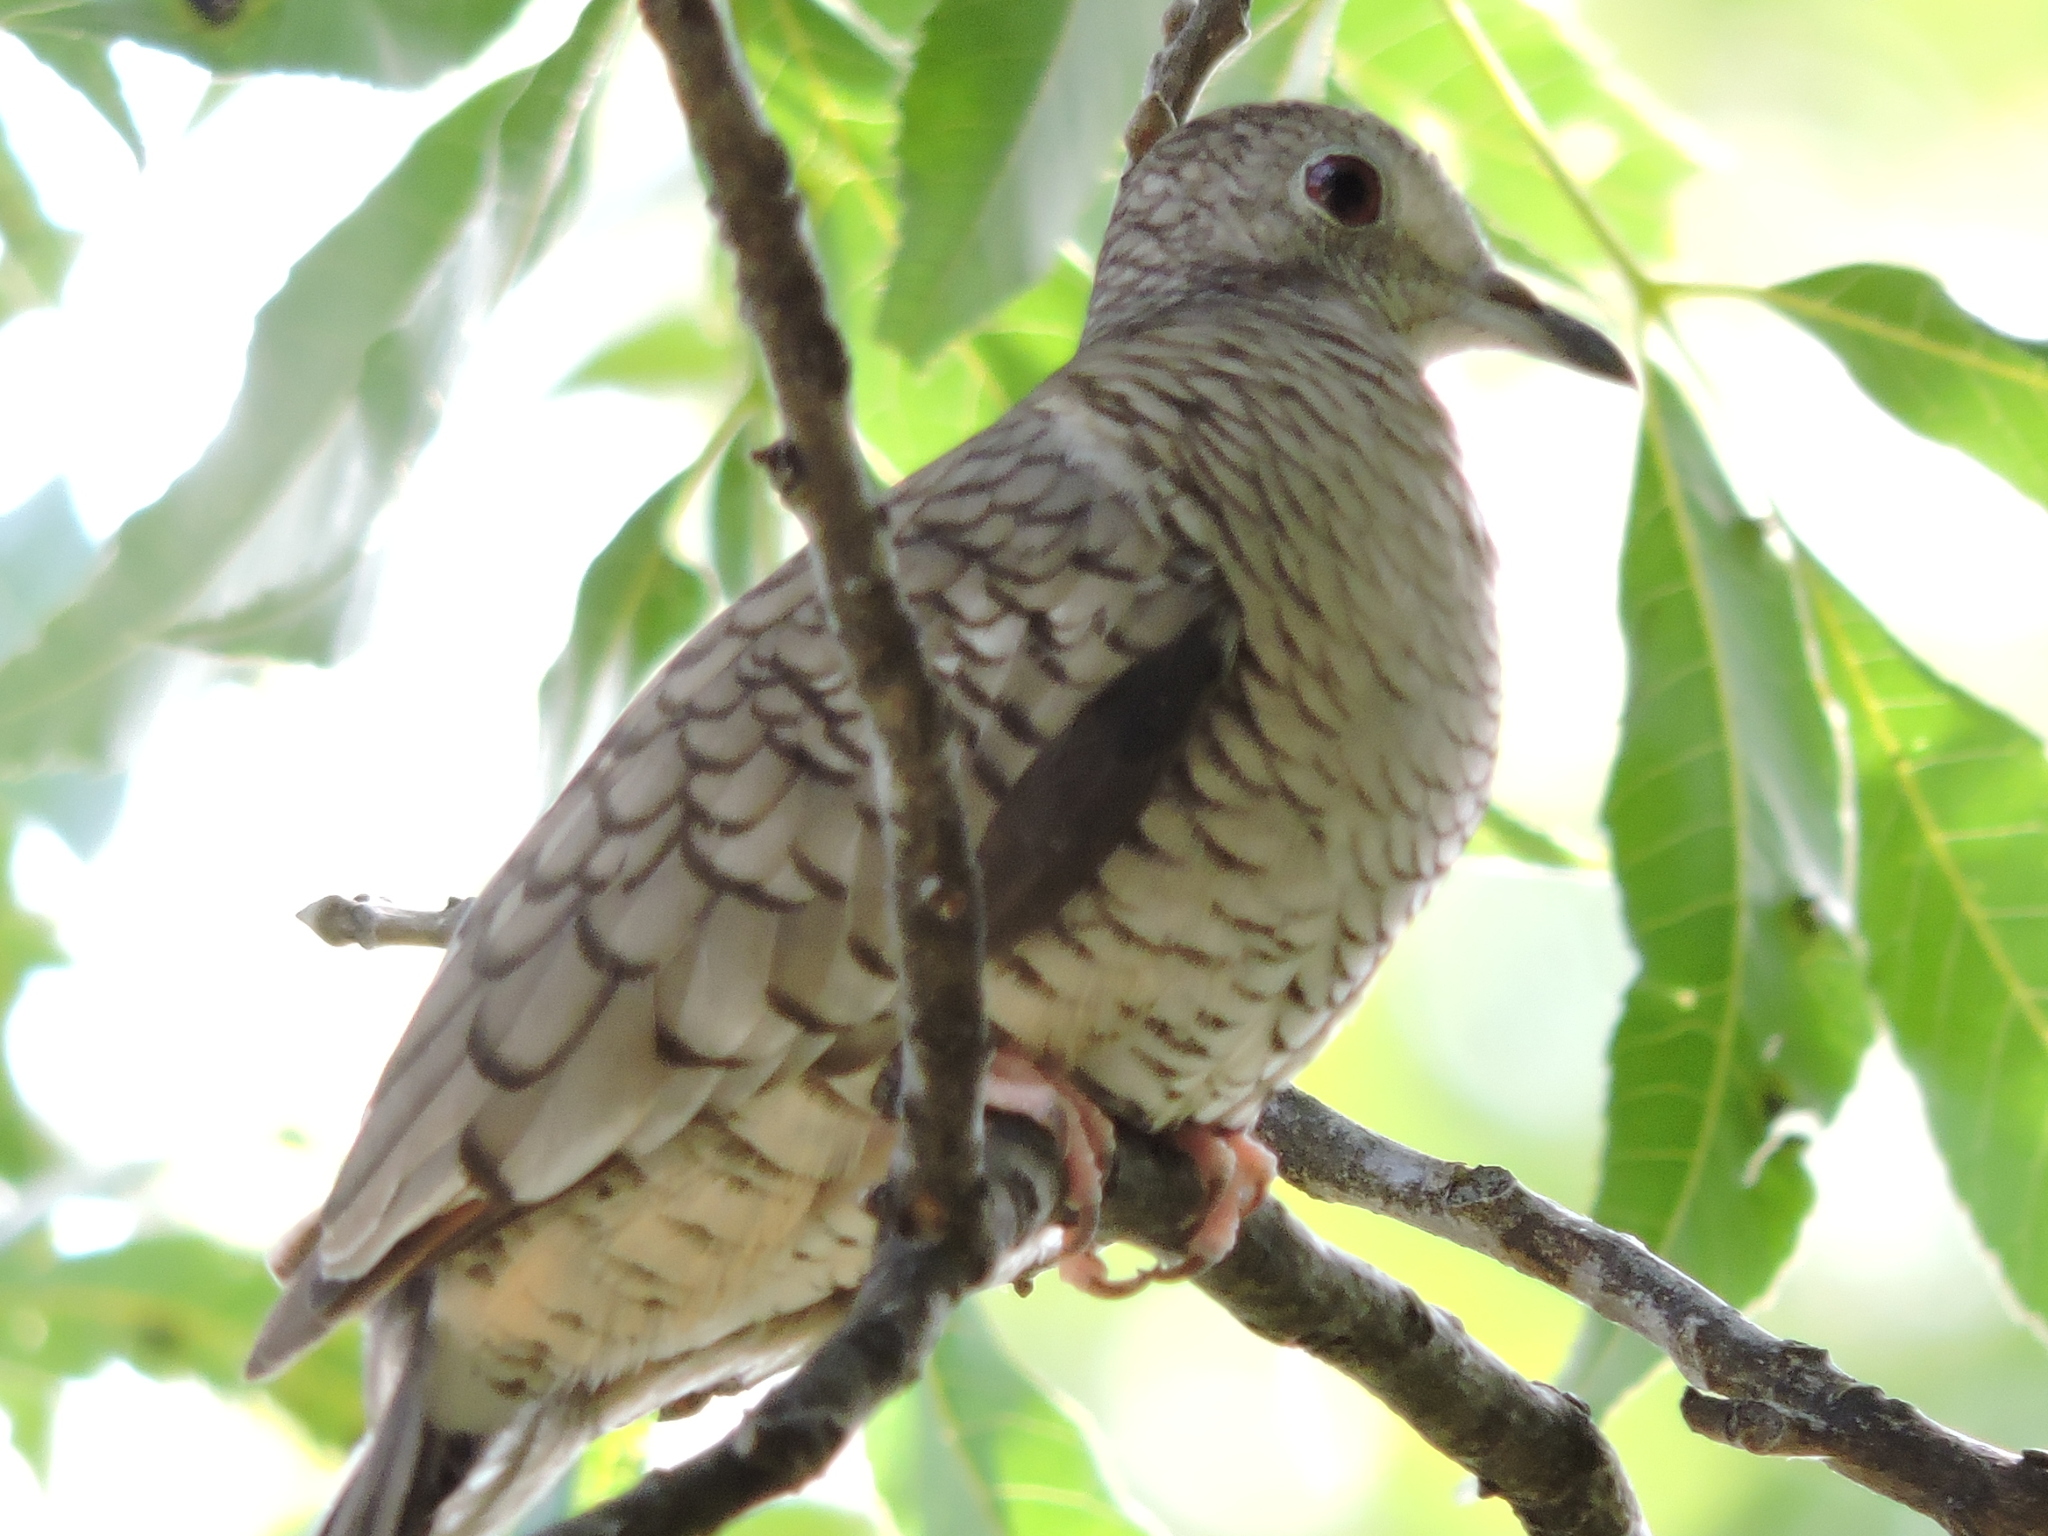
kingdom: Animalia
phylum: Chordata
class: Aves
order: Columbiformes
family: Columbidae
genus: Columbina
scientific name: Columbina inca
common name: Inca dove
